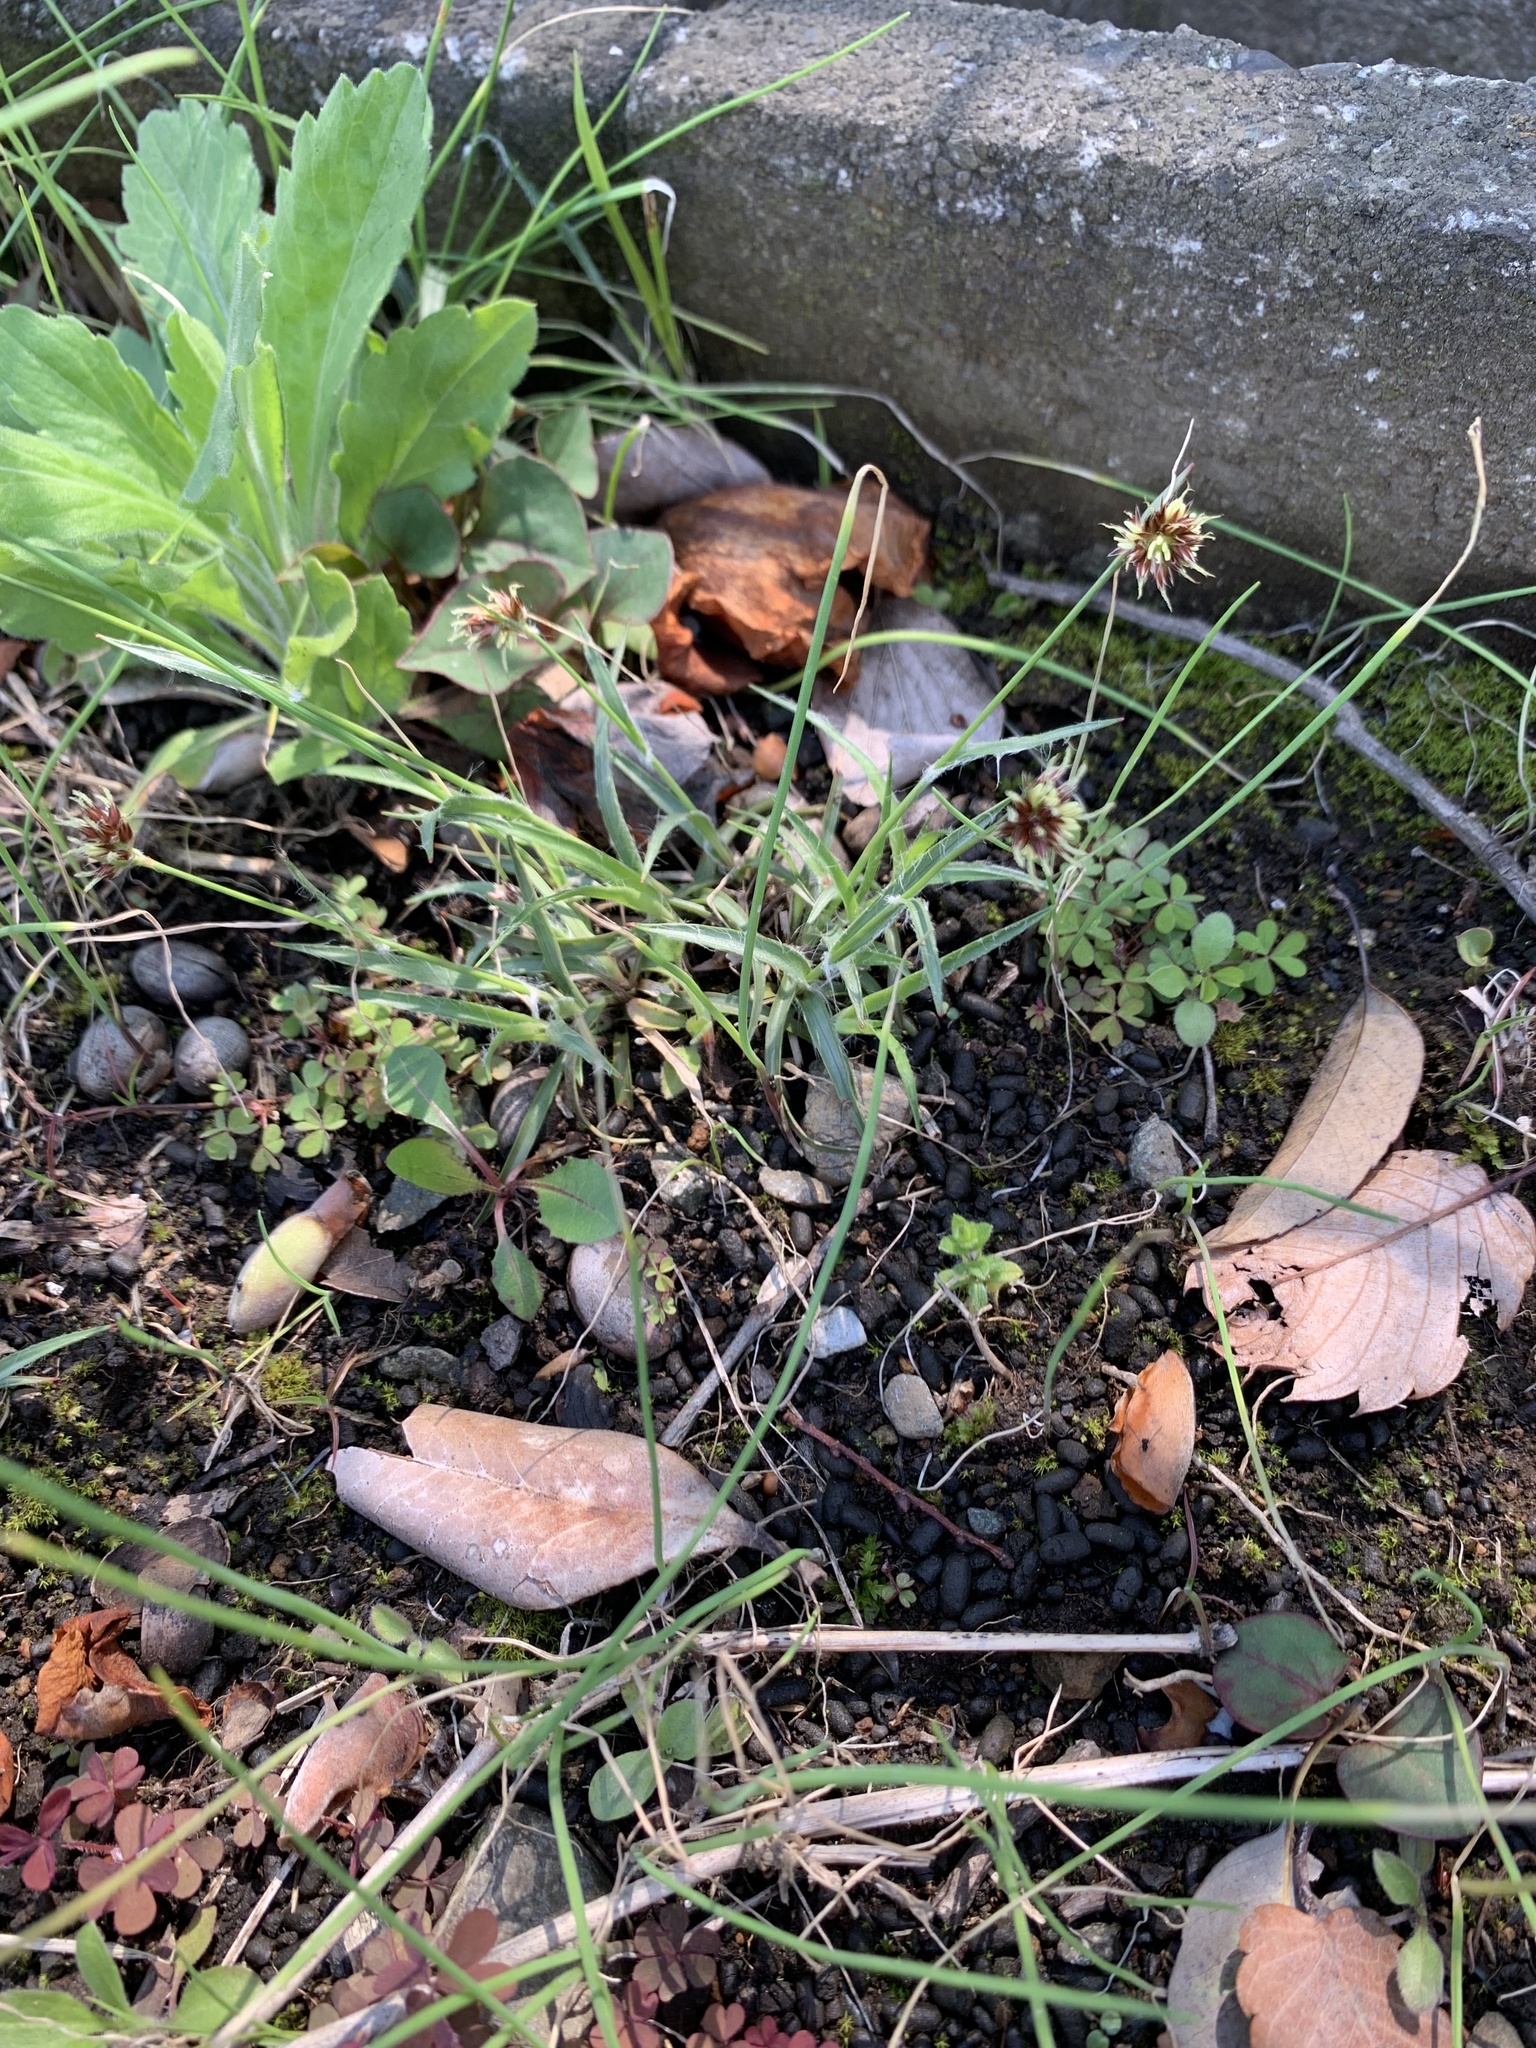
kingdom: Plantae
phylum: Tracheophyta
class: Liliopsida
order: Poales
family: Juncaceae
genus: Luzula
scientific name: Luzula capitata
